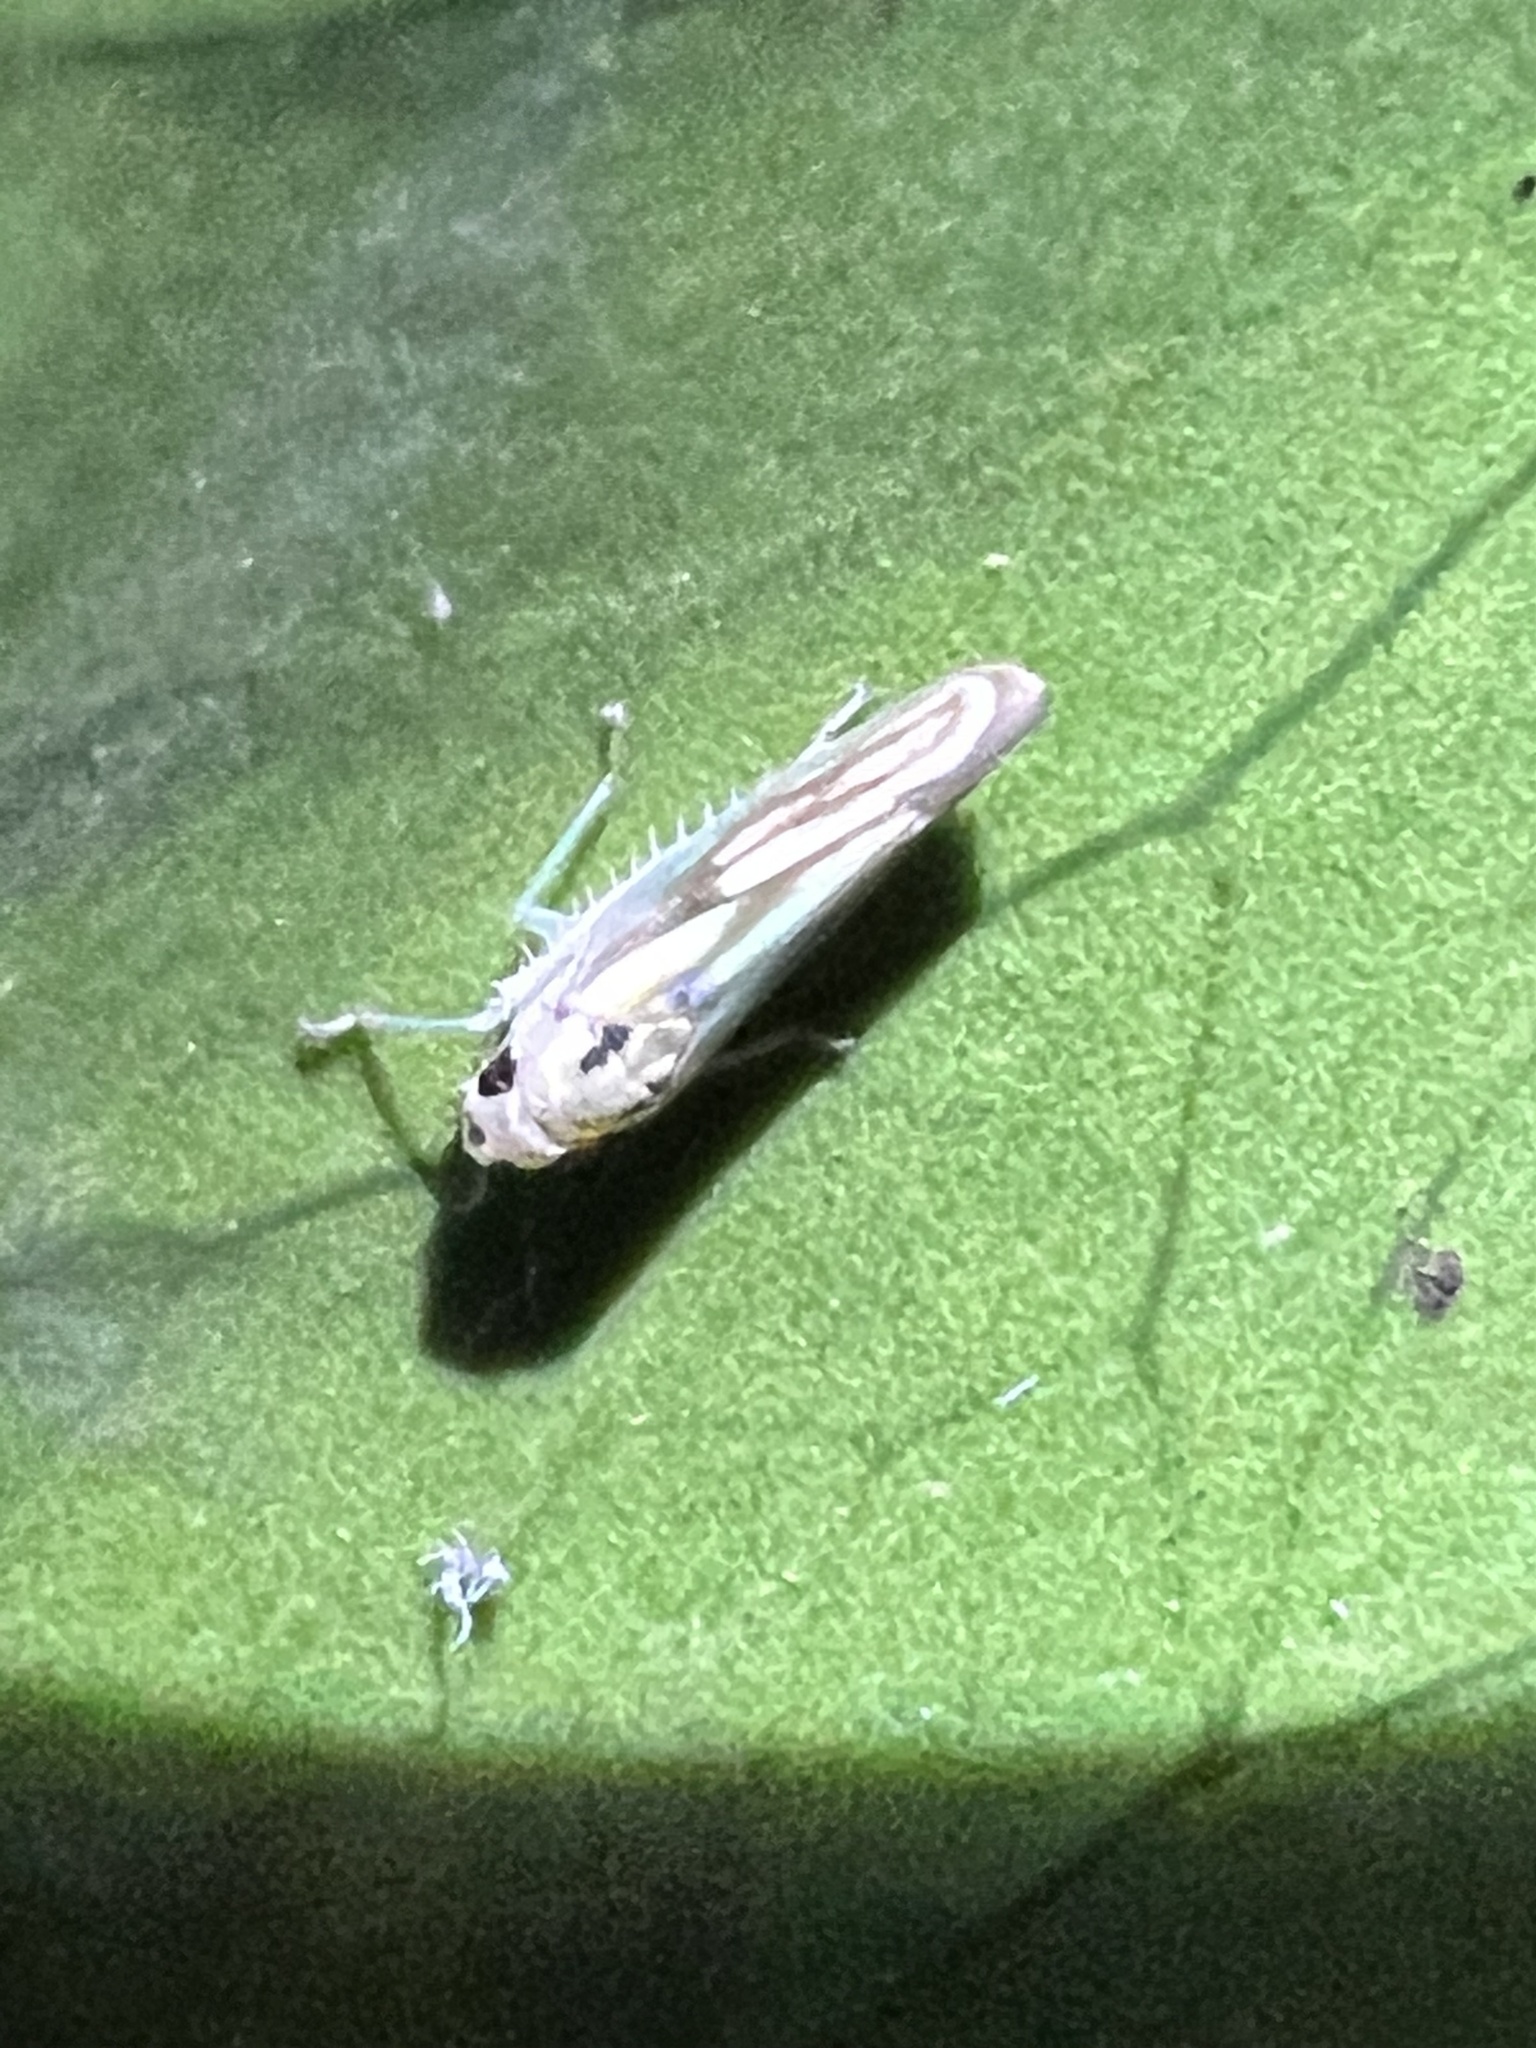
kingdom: Animalia
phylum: Arthropoda
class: Insecta
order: Hemiptera
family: Cicadellidae
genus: Allogonia
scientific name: Allogonia induta
